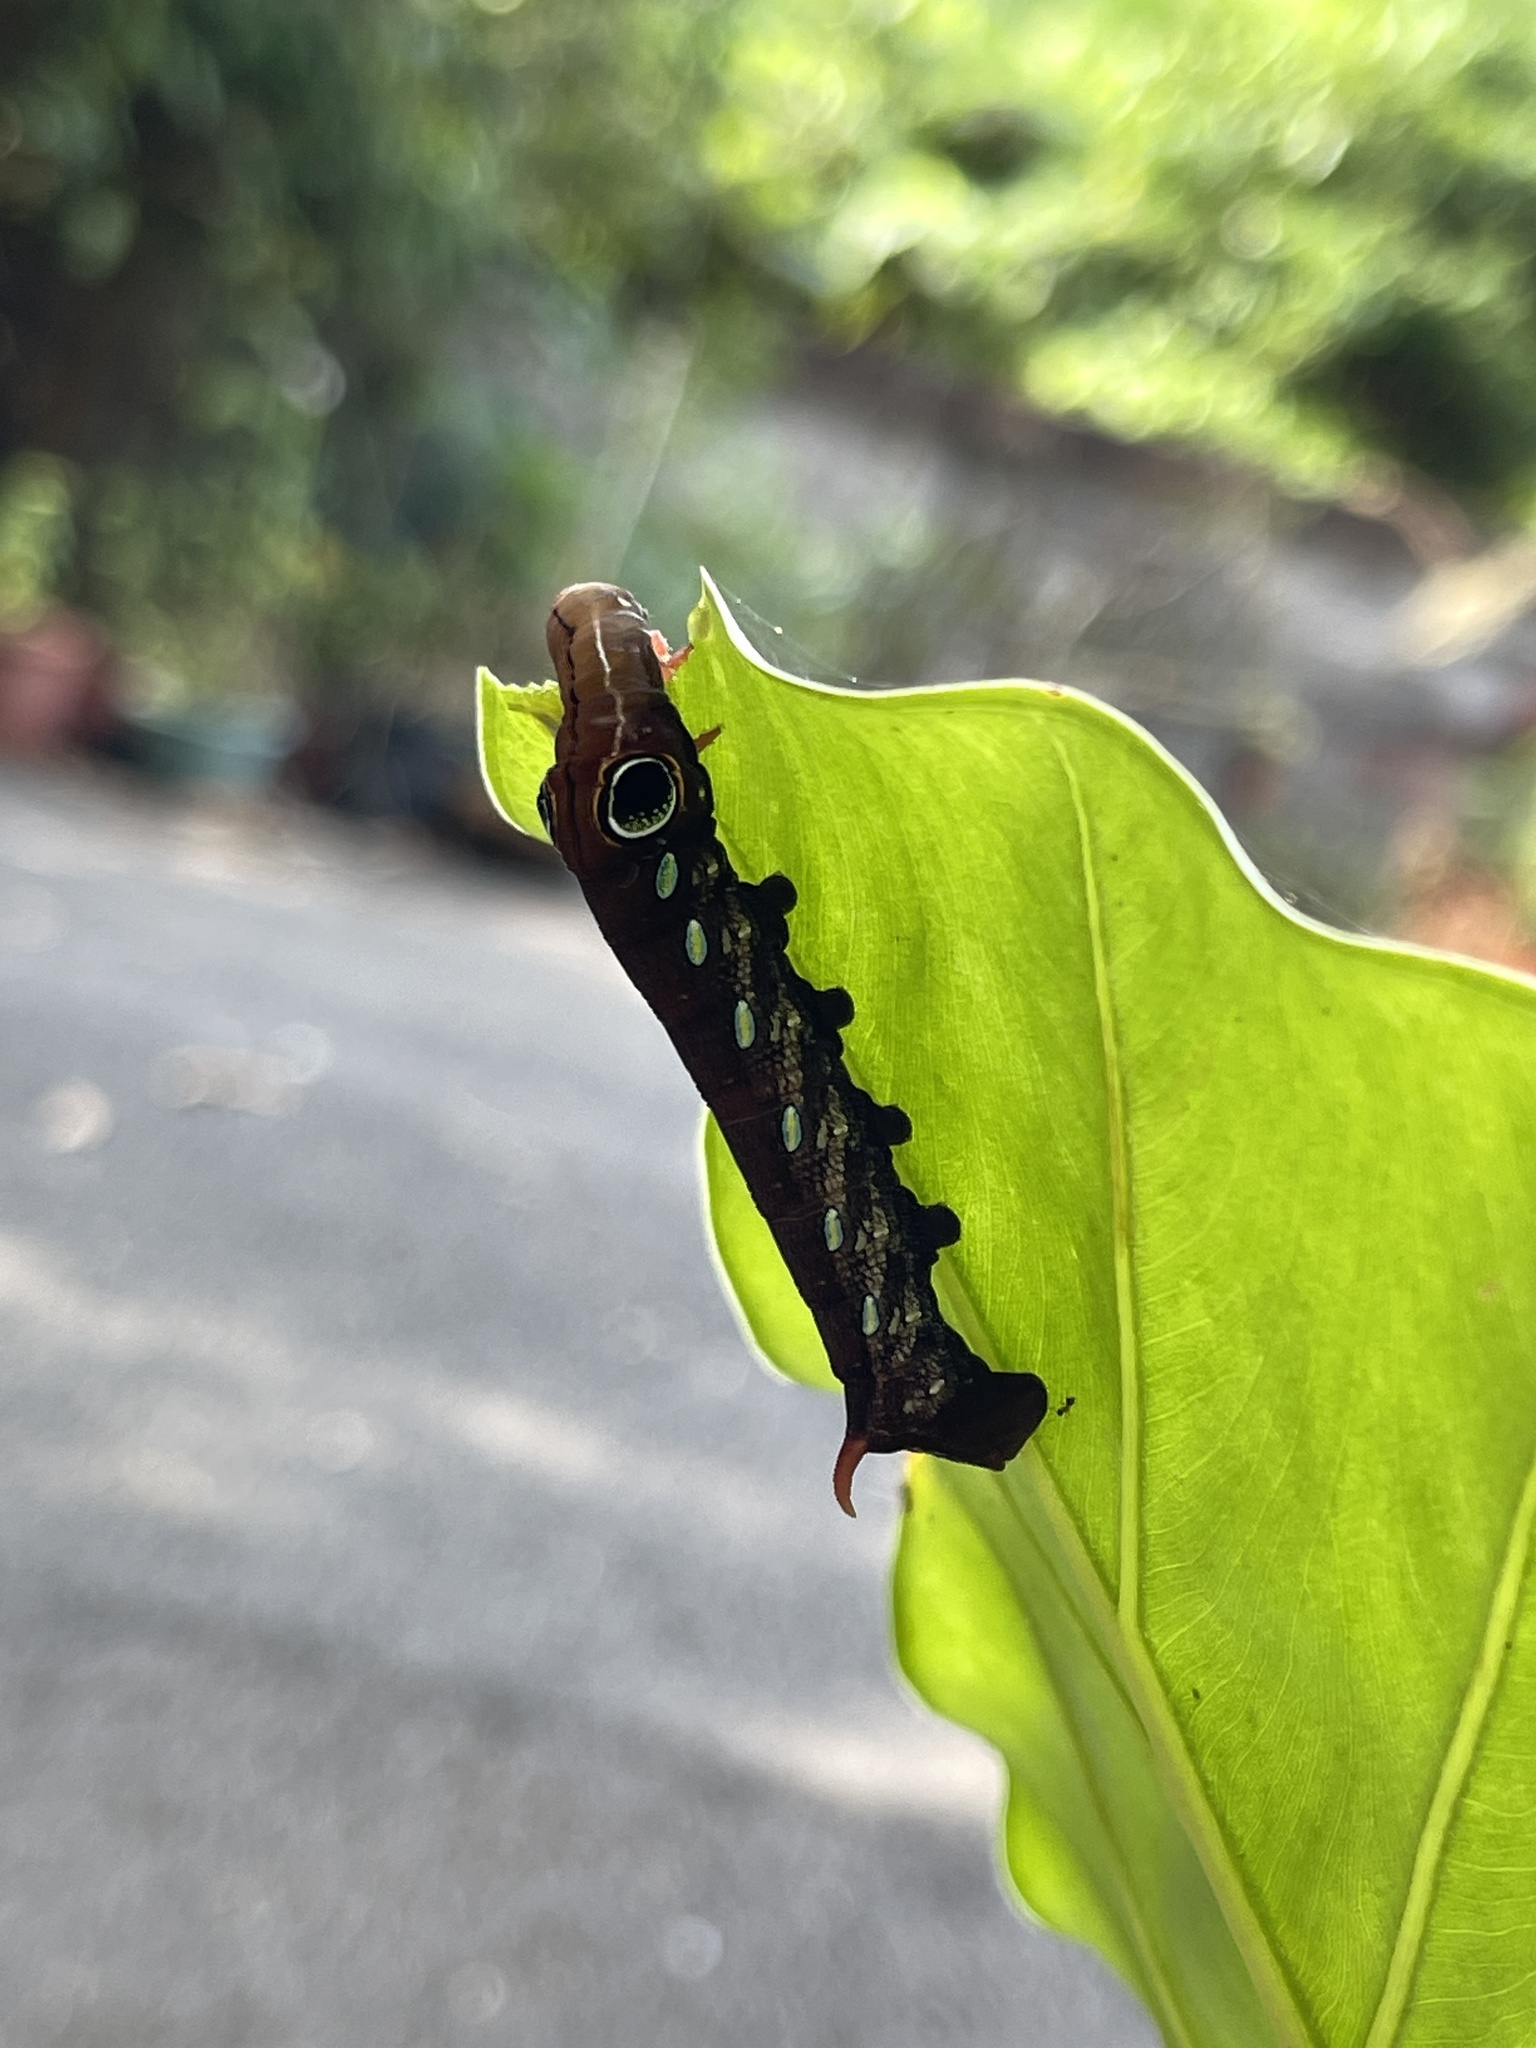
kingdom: Animalia
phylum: Arthropoda
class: Insecta
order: Lepidoptera
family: Sphingidae
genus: Pergesa
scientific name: Pergesa acteus
